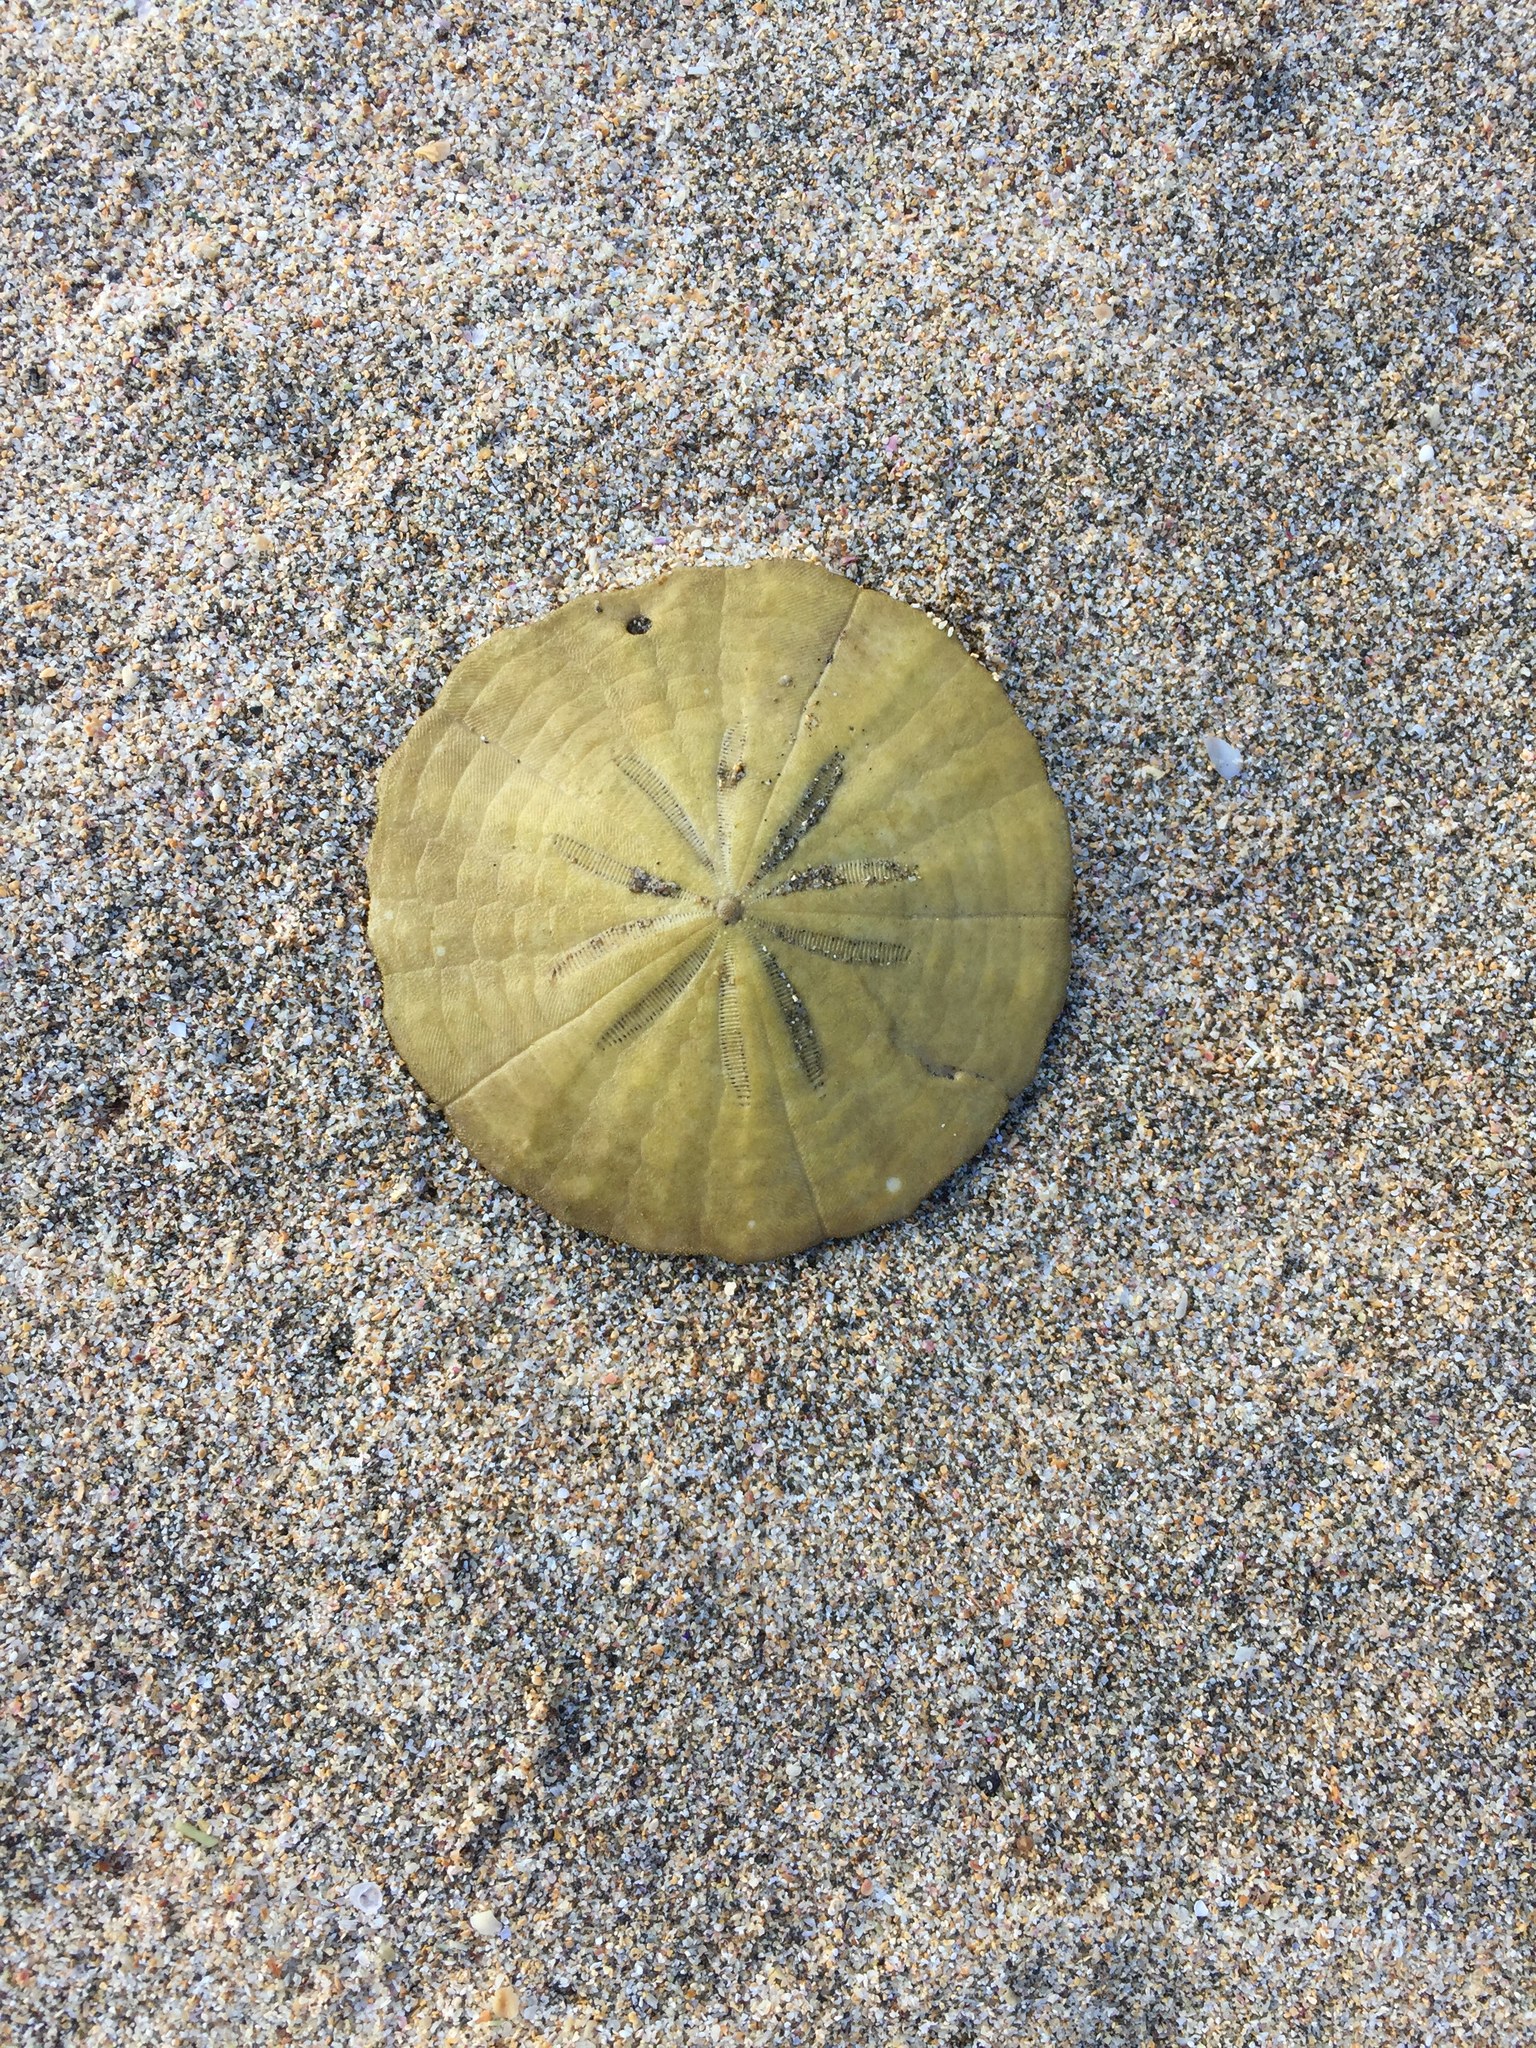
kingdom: Animalia
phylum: Echinodermata
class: Echinoidea
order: Clypeasteroida
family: Clypeasteridae
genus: Fellaster
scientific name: Fellaster zelandiae
